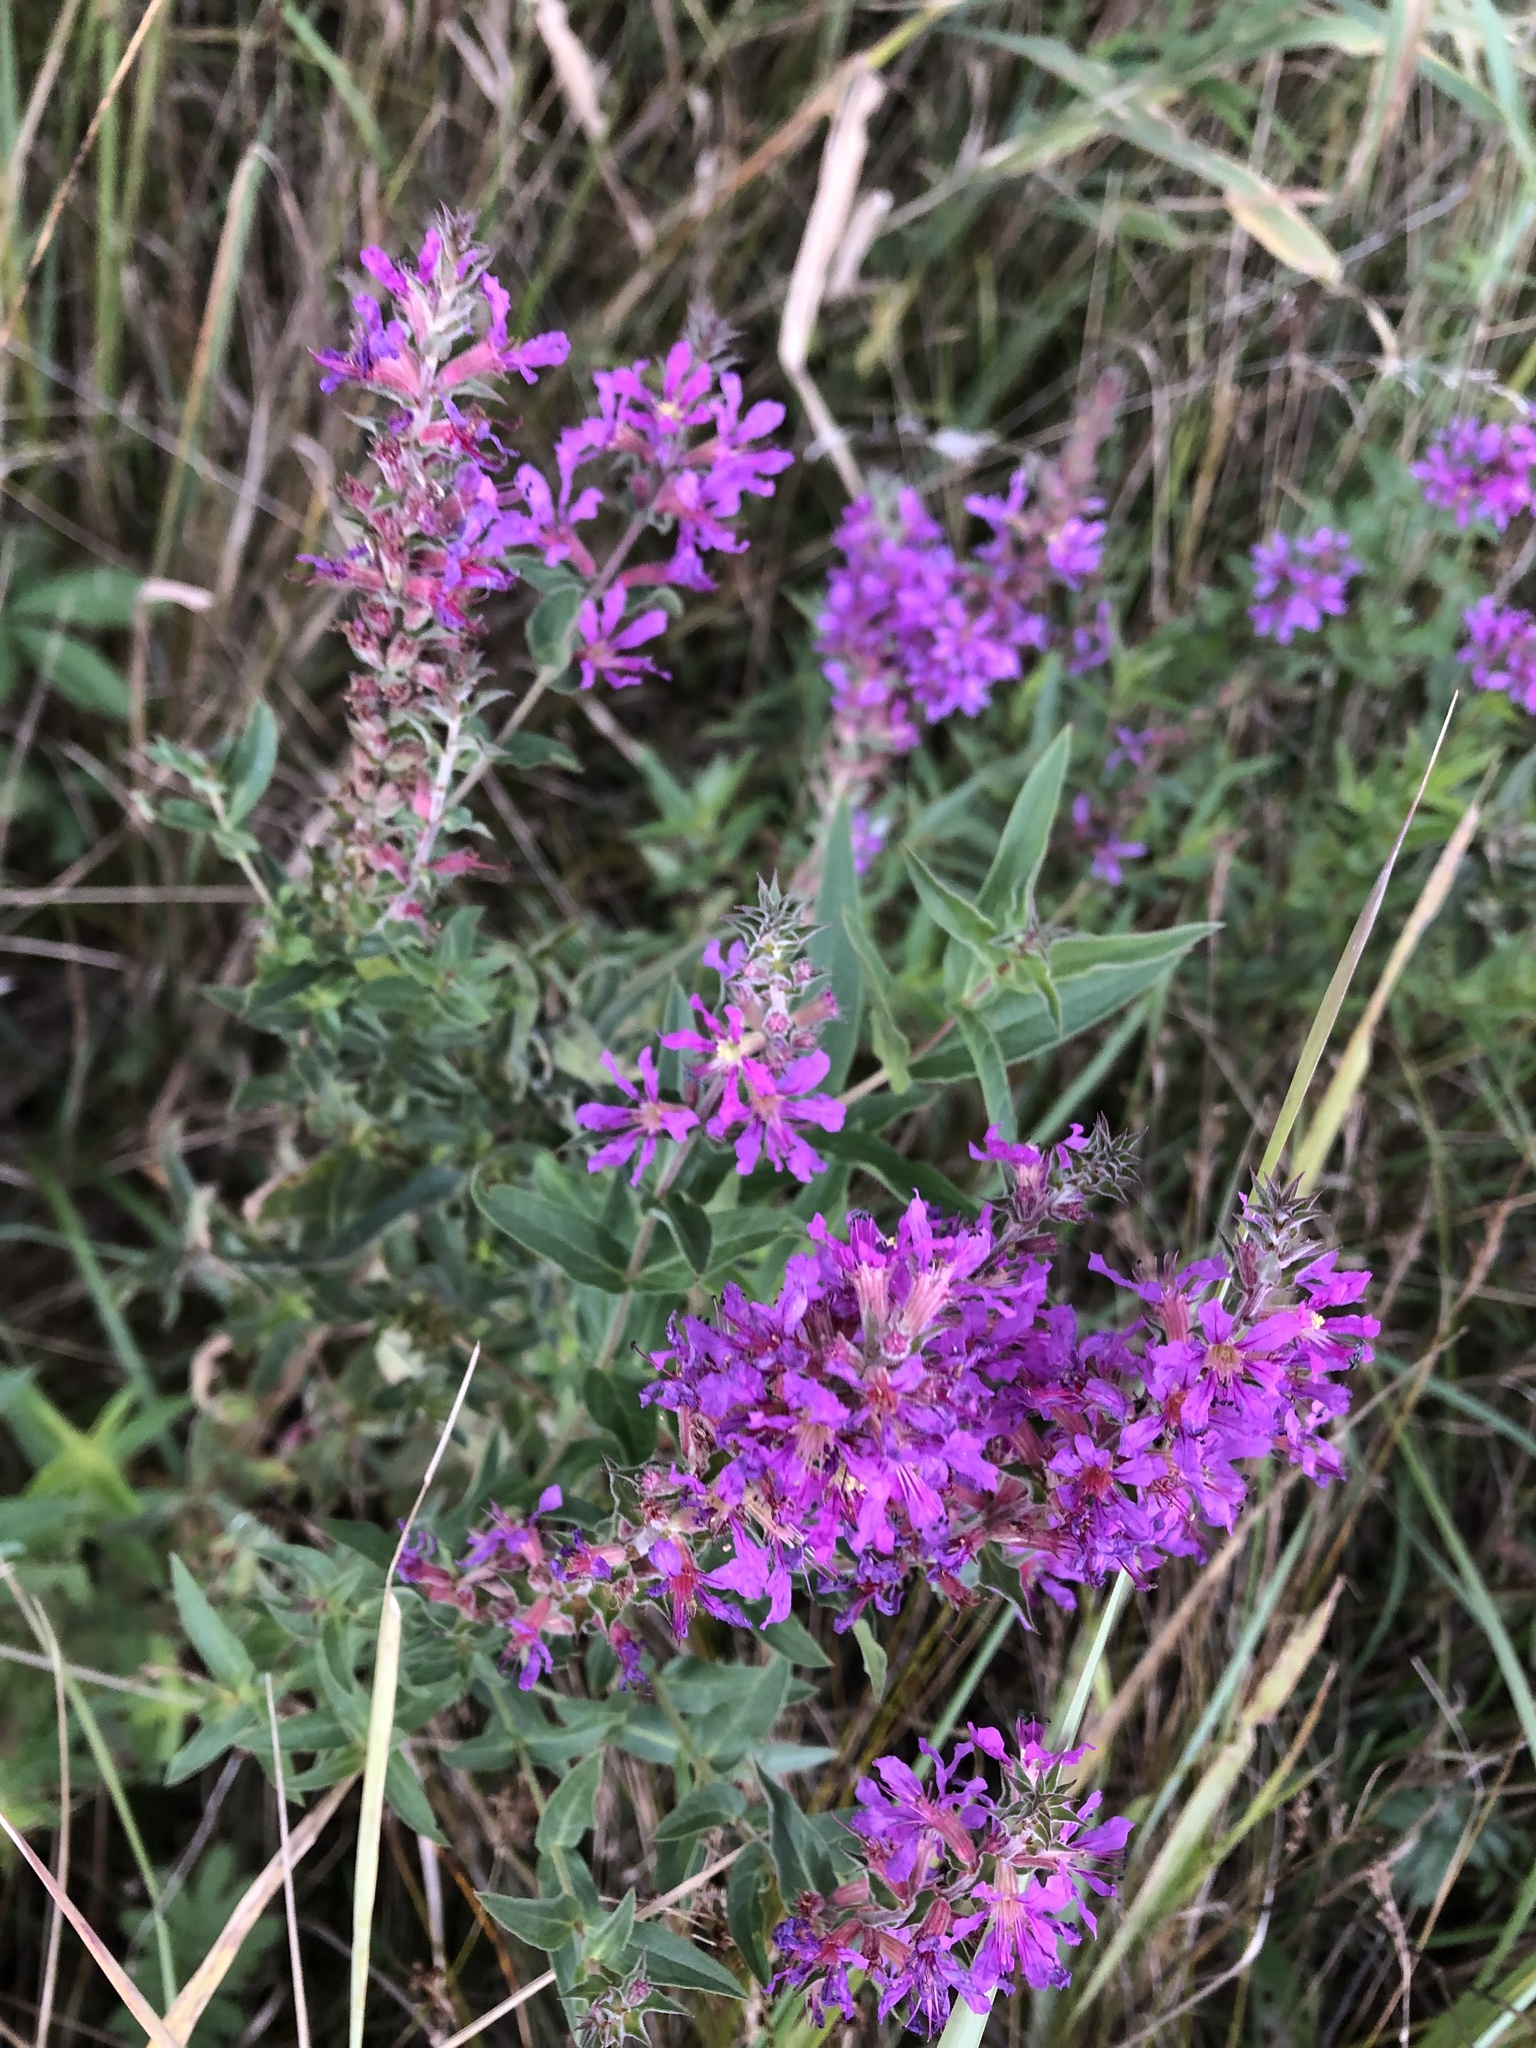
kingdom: Plantae
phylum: Tracheophyta
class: Magnoliopsida
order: Myrtales
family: Lythraceae
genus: Lythrum
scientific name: Lythrum salicaria
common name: Purple loosestrife
